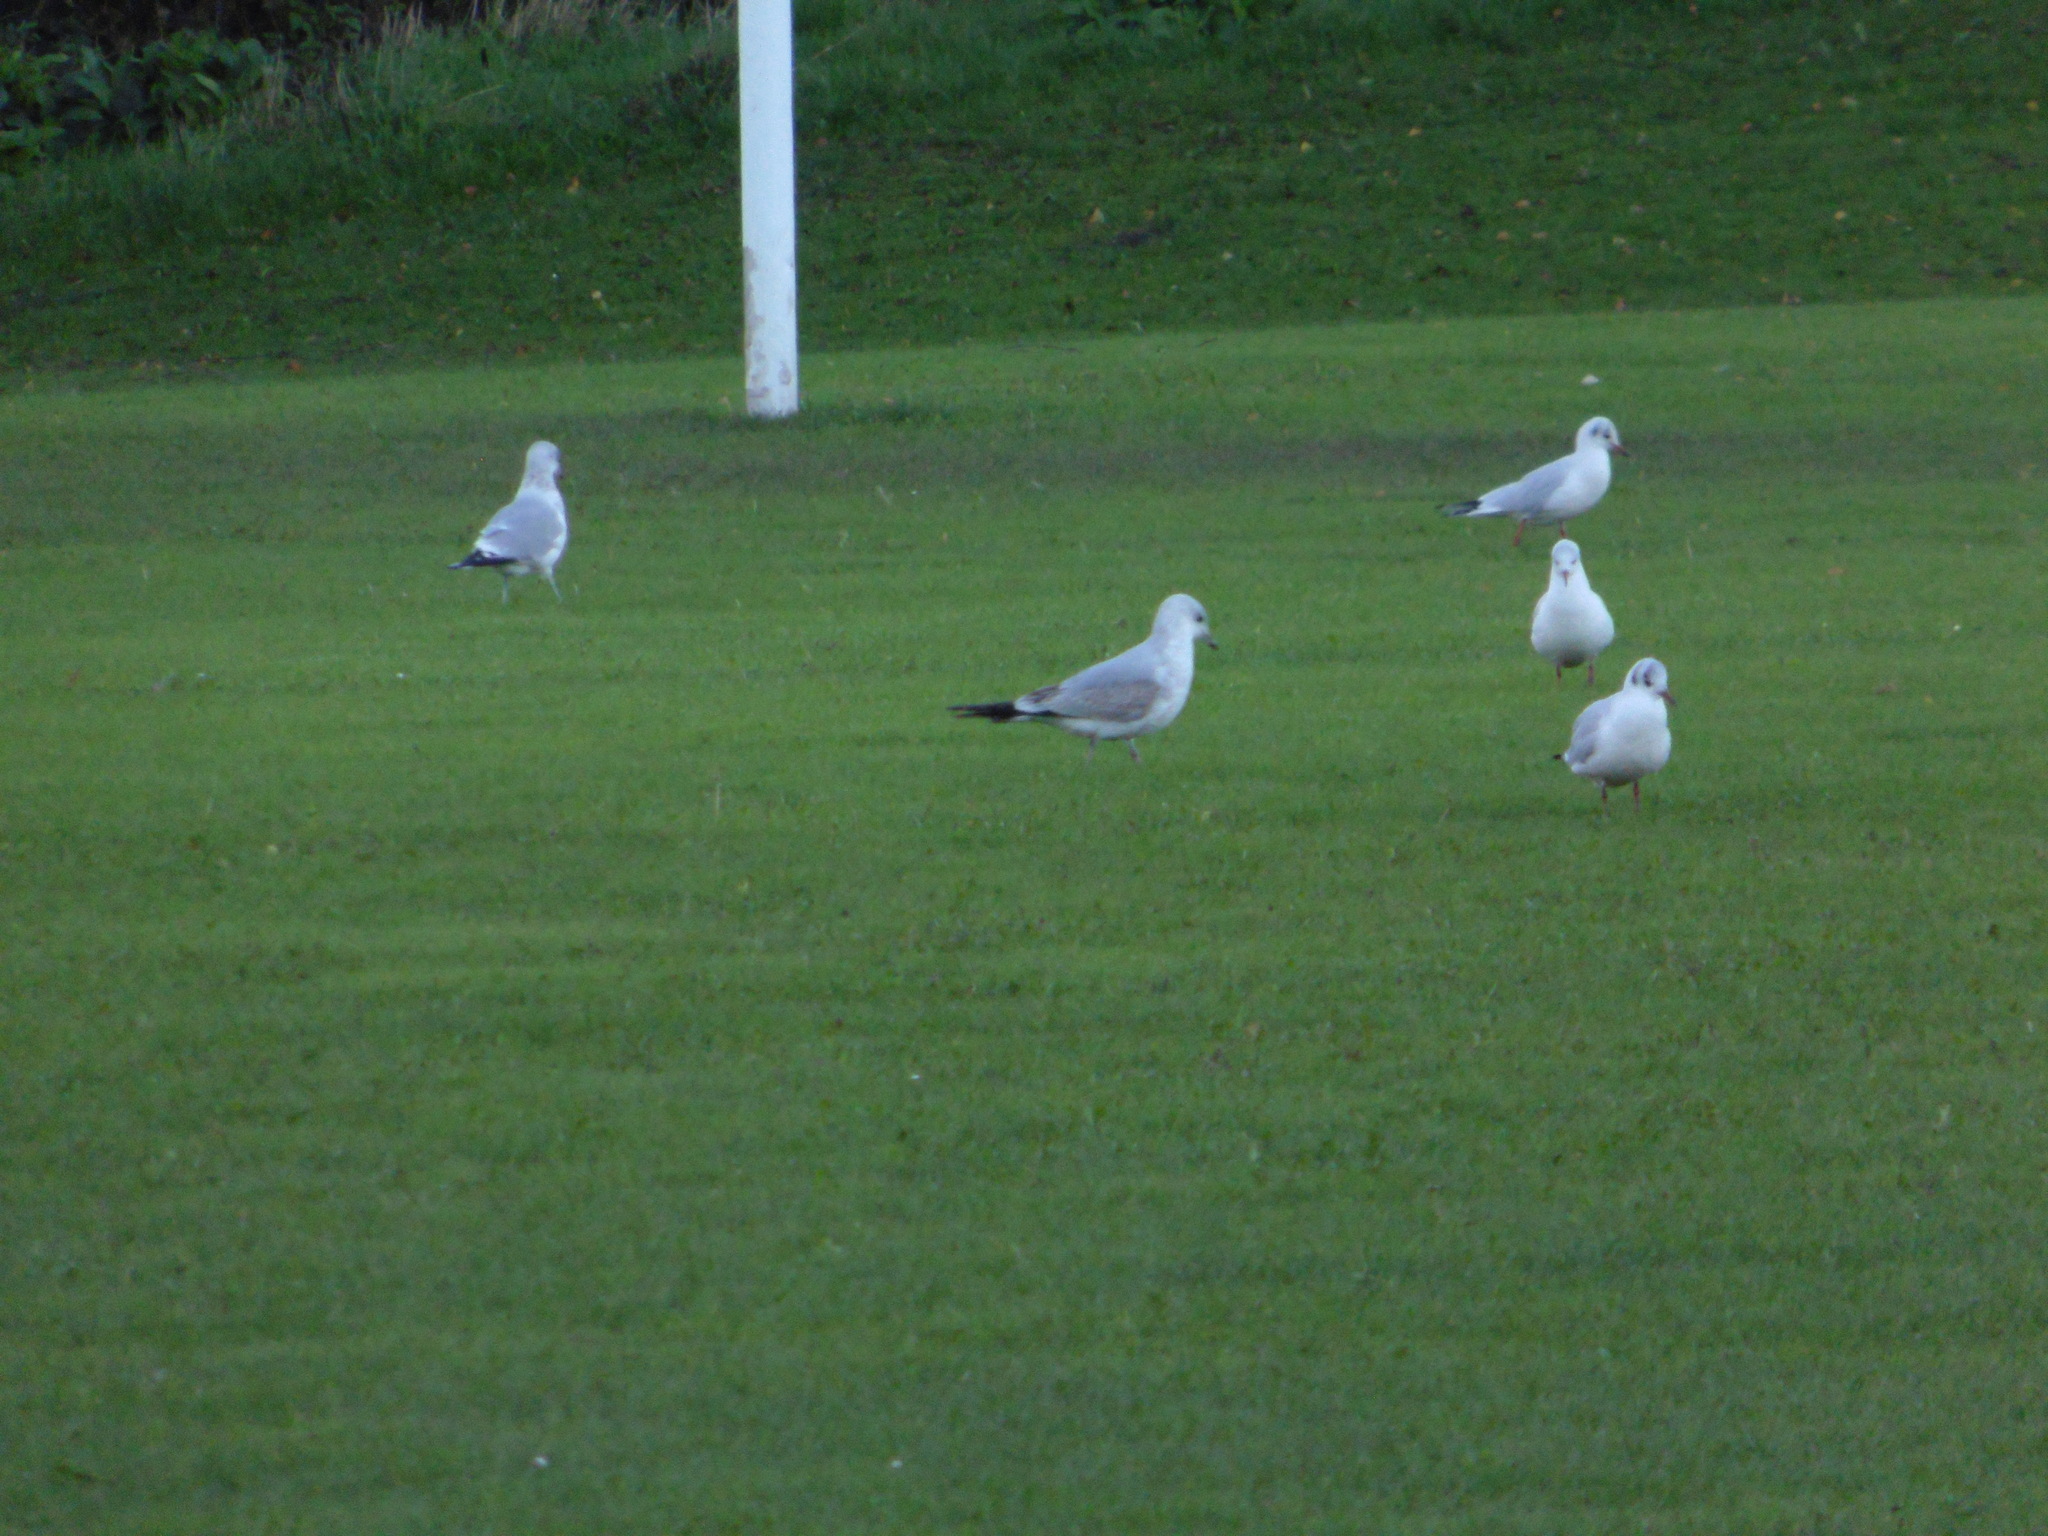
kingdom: Animalia
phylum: Chordata
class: Aves
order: Charadriiformes
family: Laridae
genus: Larus
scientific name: Larus canus
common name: Mew gull
